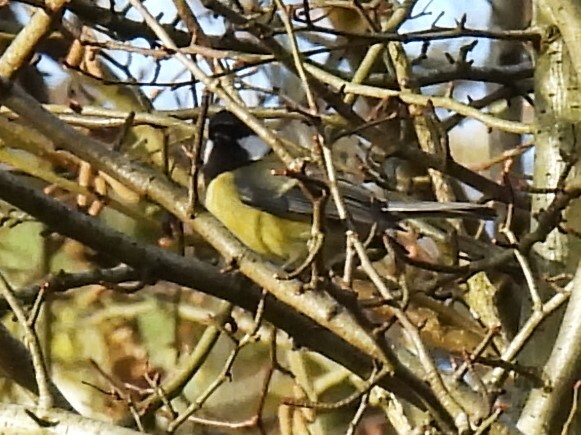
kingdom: Animalia
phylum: Chordata
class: Aves
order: Passeriformes
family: Paridae
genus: Parus
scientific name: Parus major
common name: Great tit
